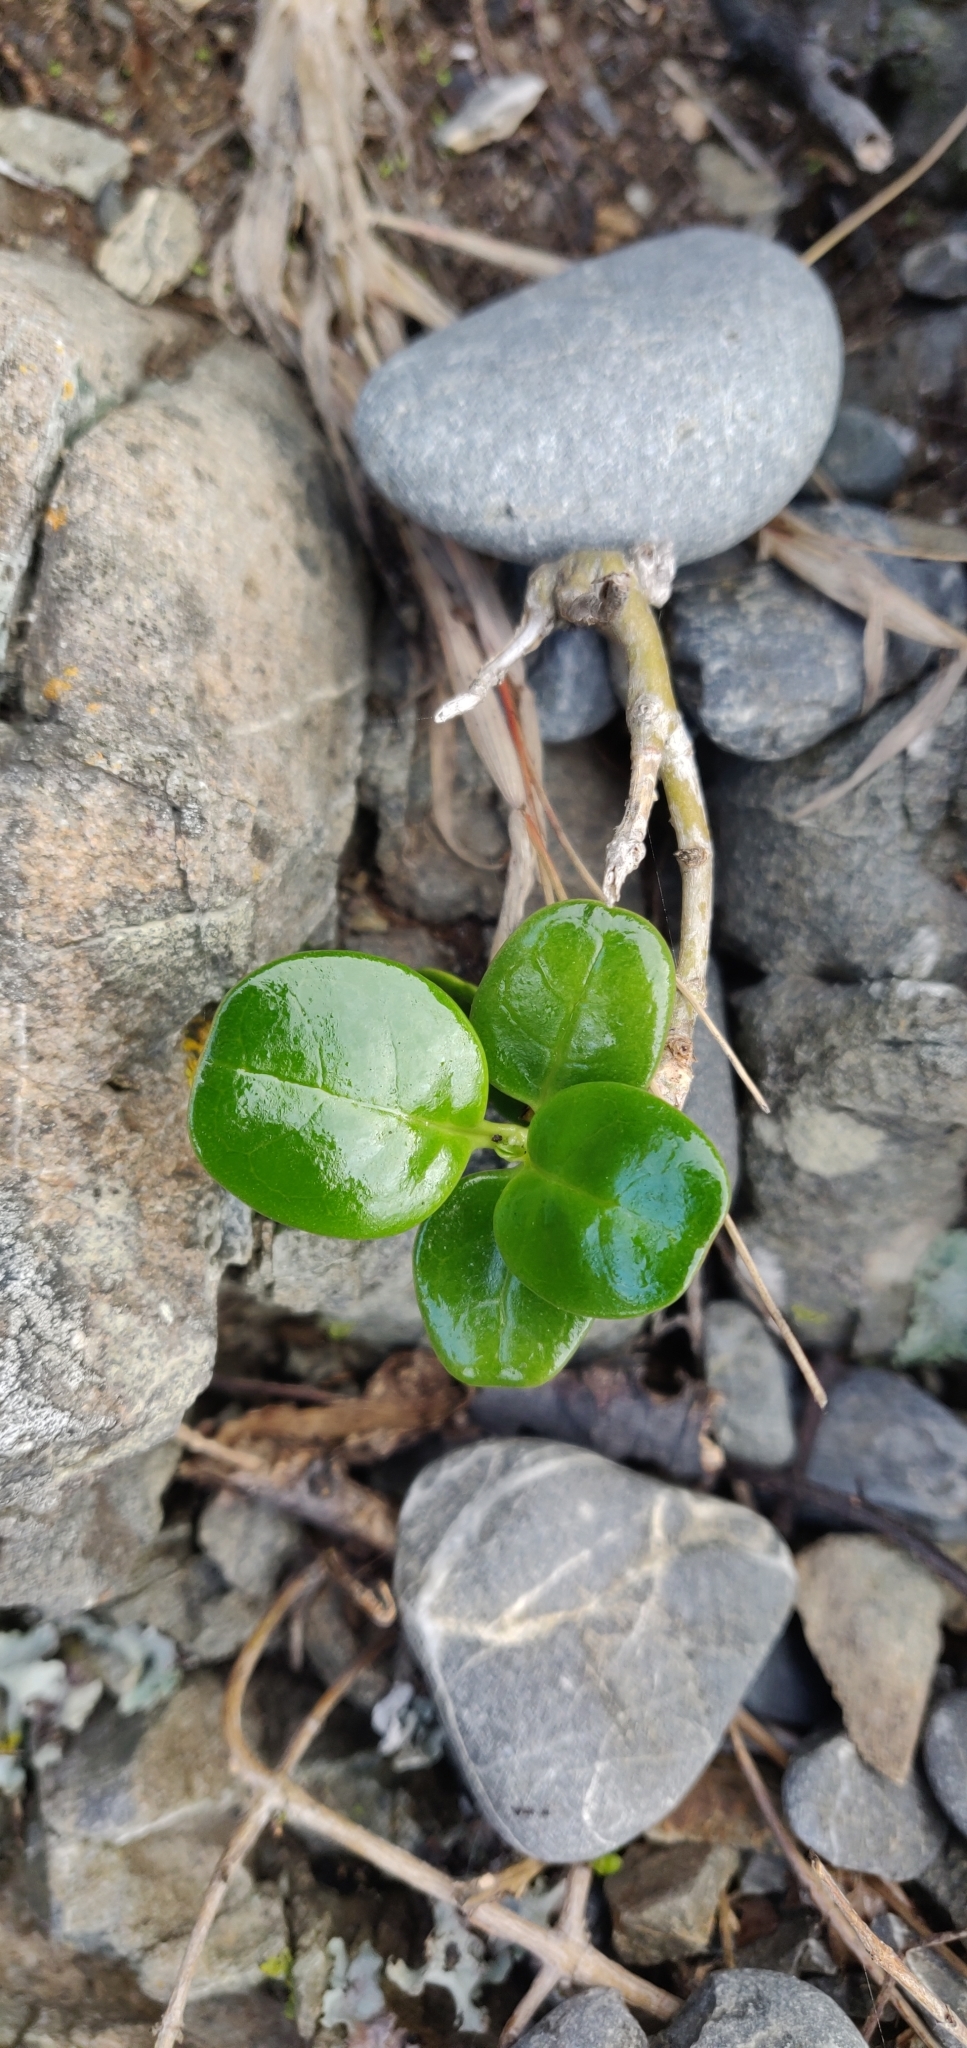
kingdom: Plantae
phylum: Tracheophyta
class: Magnoliopsida
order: Gentianales
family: Rubiaceae
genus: Coprosma
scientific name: Coprosma repens
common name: Tree bedstraw
